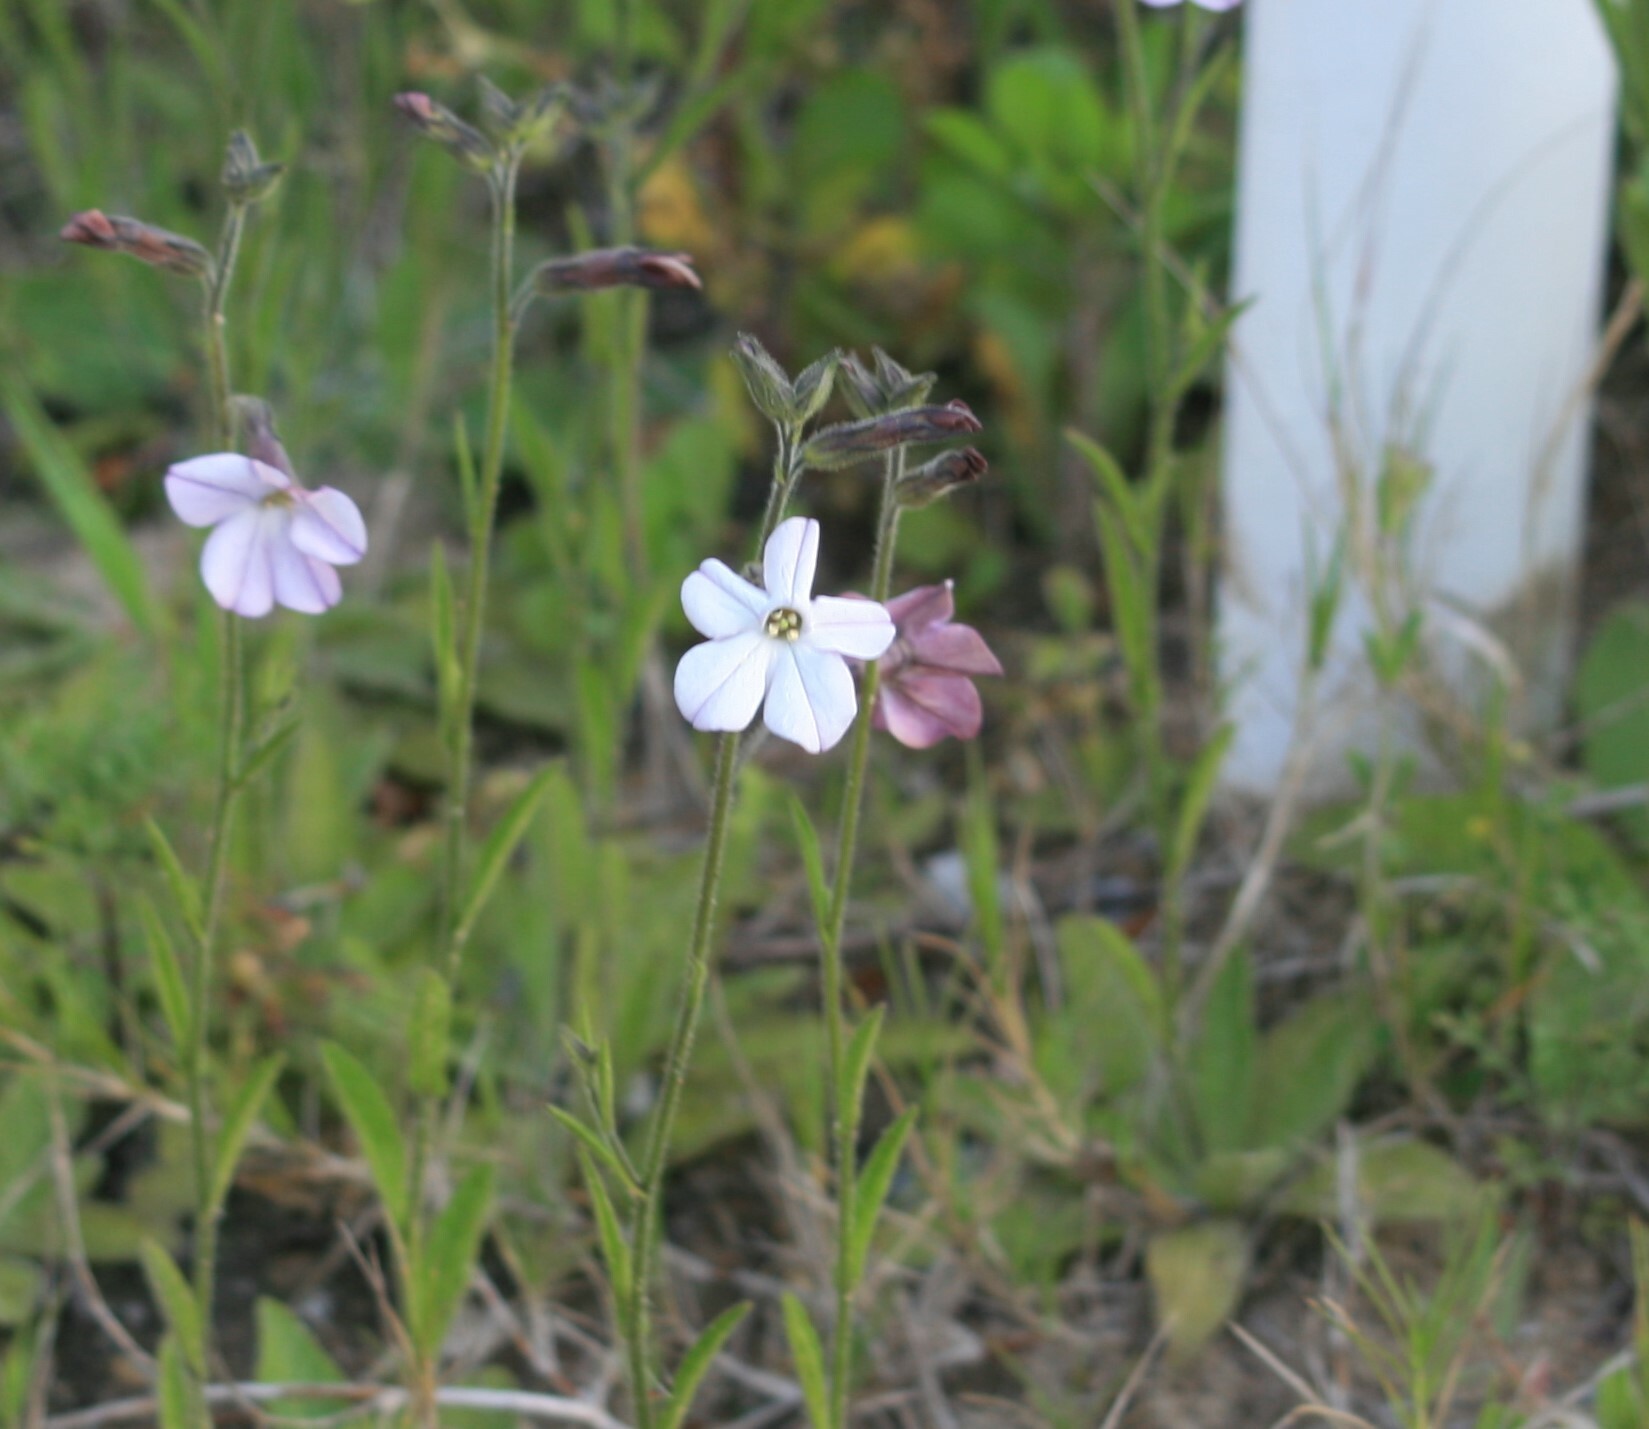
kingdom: Plantae
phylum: Tracheophyta
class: Magnoliopsida
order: Solanales
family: Solanaceae
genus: Nicotiana
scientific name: Nicotiana bonariensis
